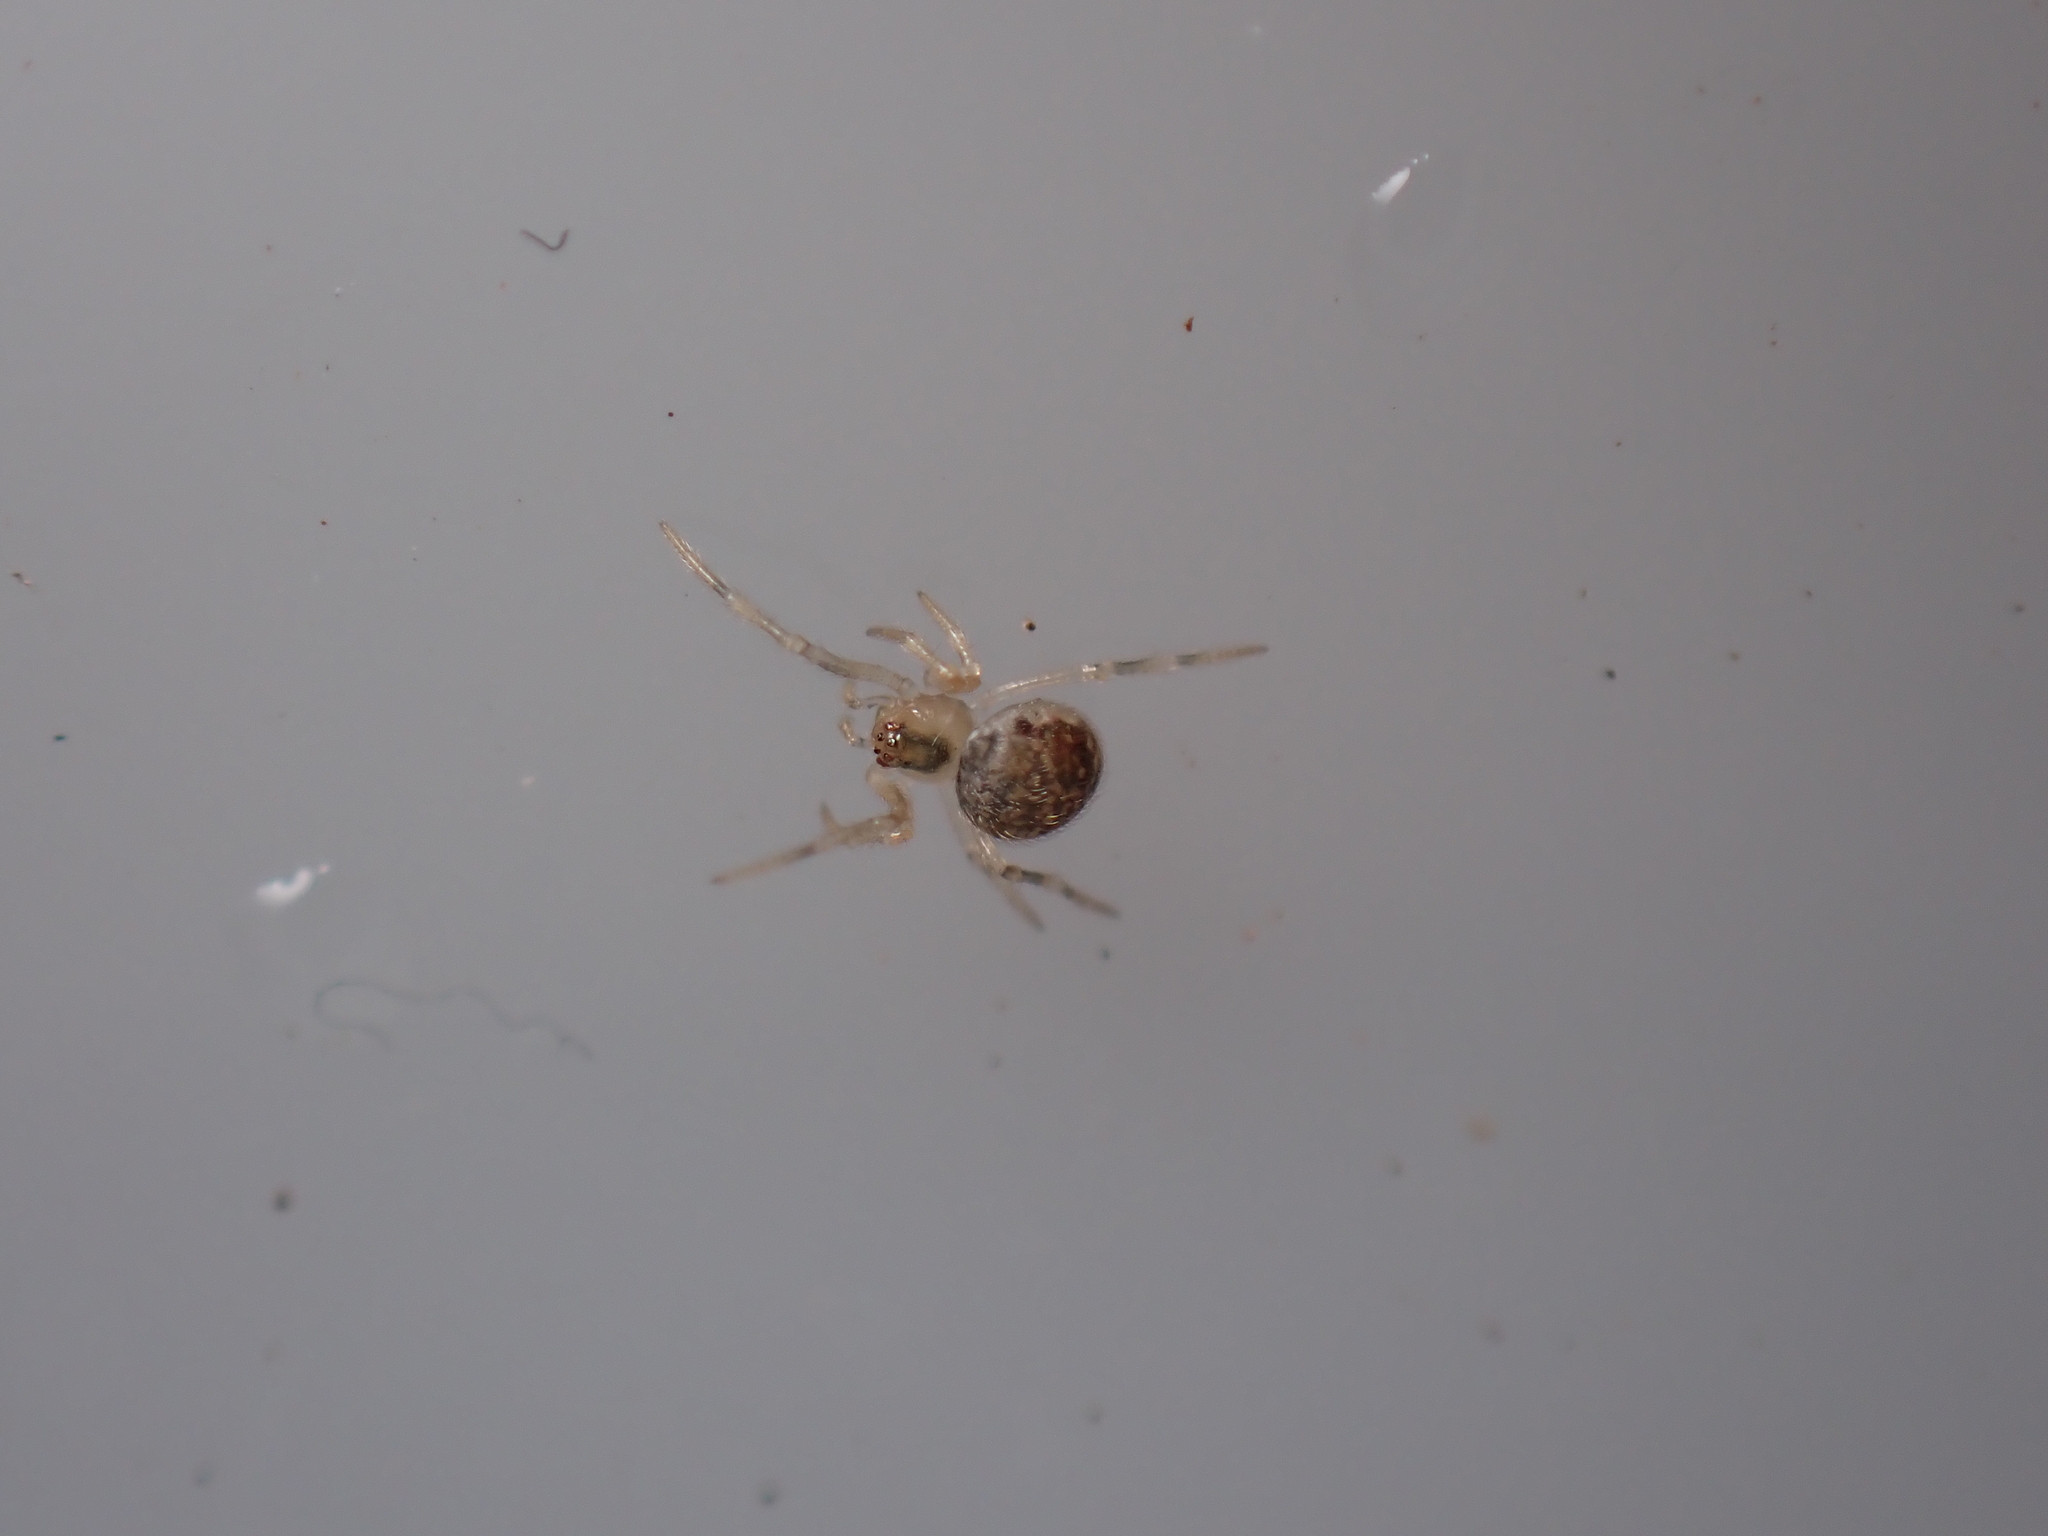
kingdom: Animalia
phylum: Arthropoda
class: Arachnida
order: Araneae
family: Theridiidae
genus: Paidiscura
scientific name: Paidiscura pallens
